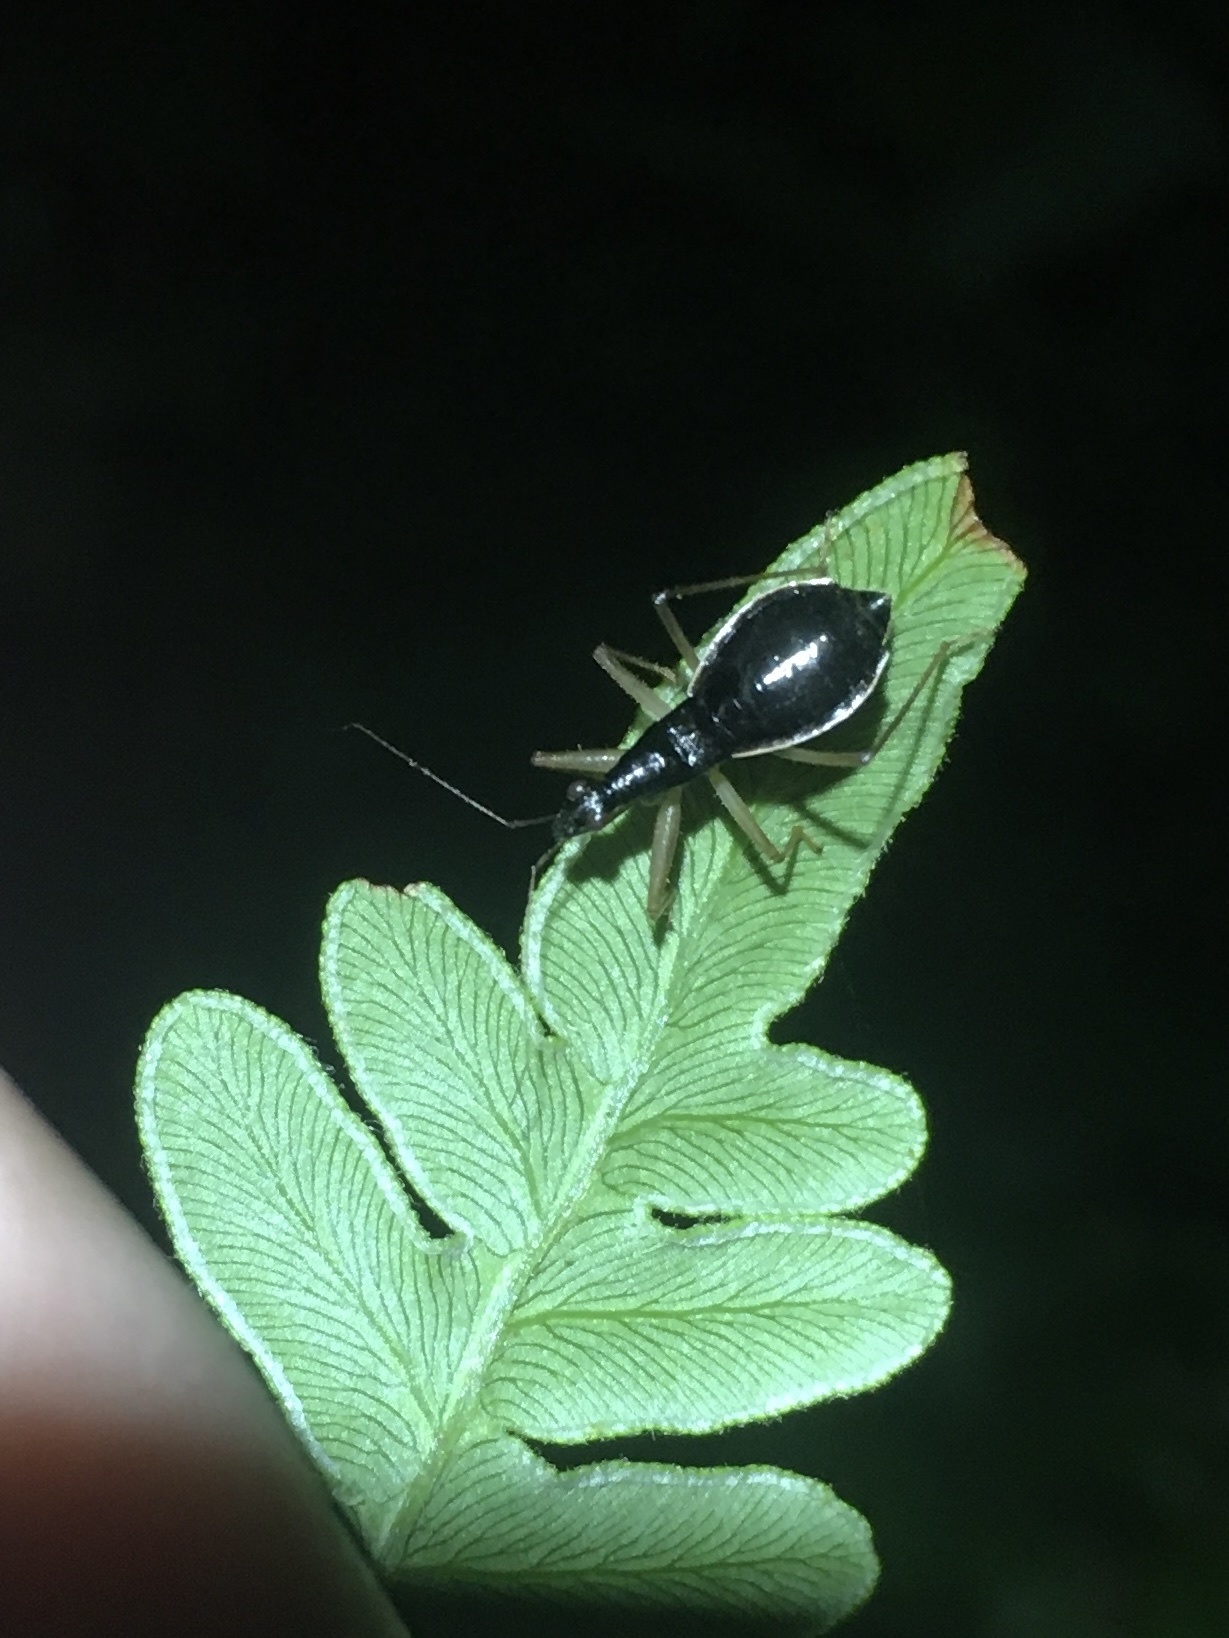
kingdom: Animalia
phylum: Arthropoda
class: Insecta
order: Hemiptera
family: Nabidae
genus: Nabis
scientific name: Nabis
